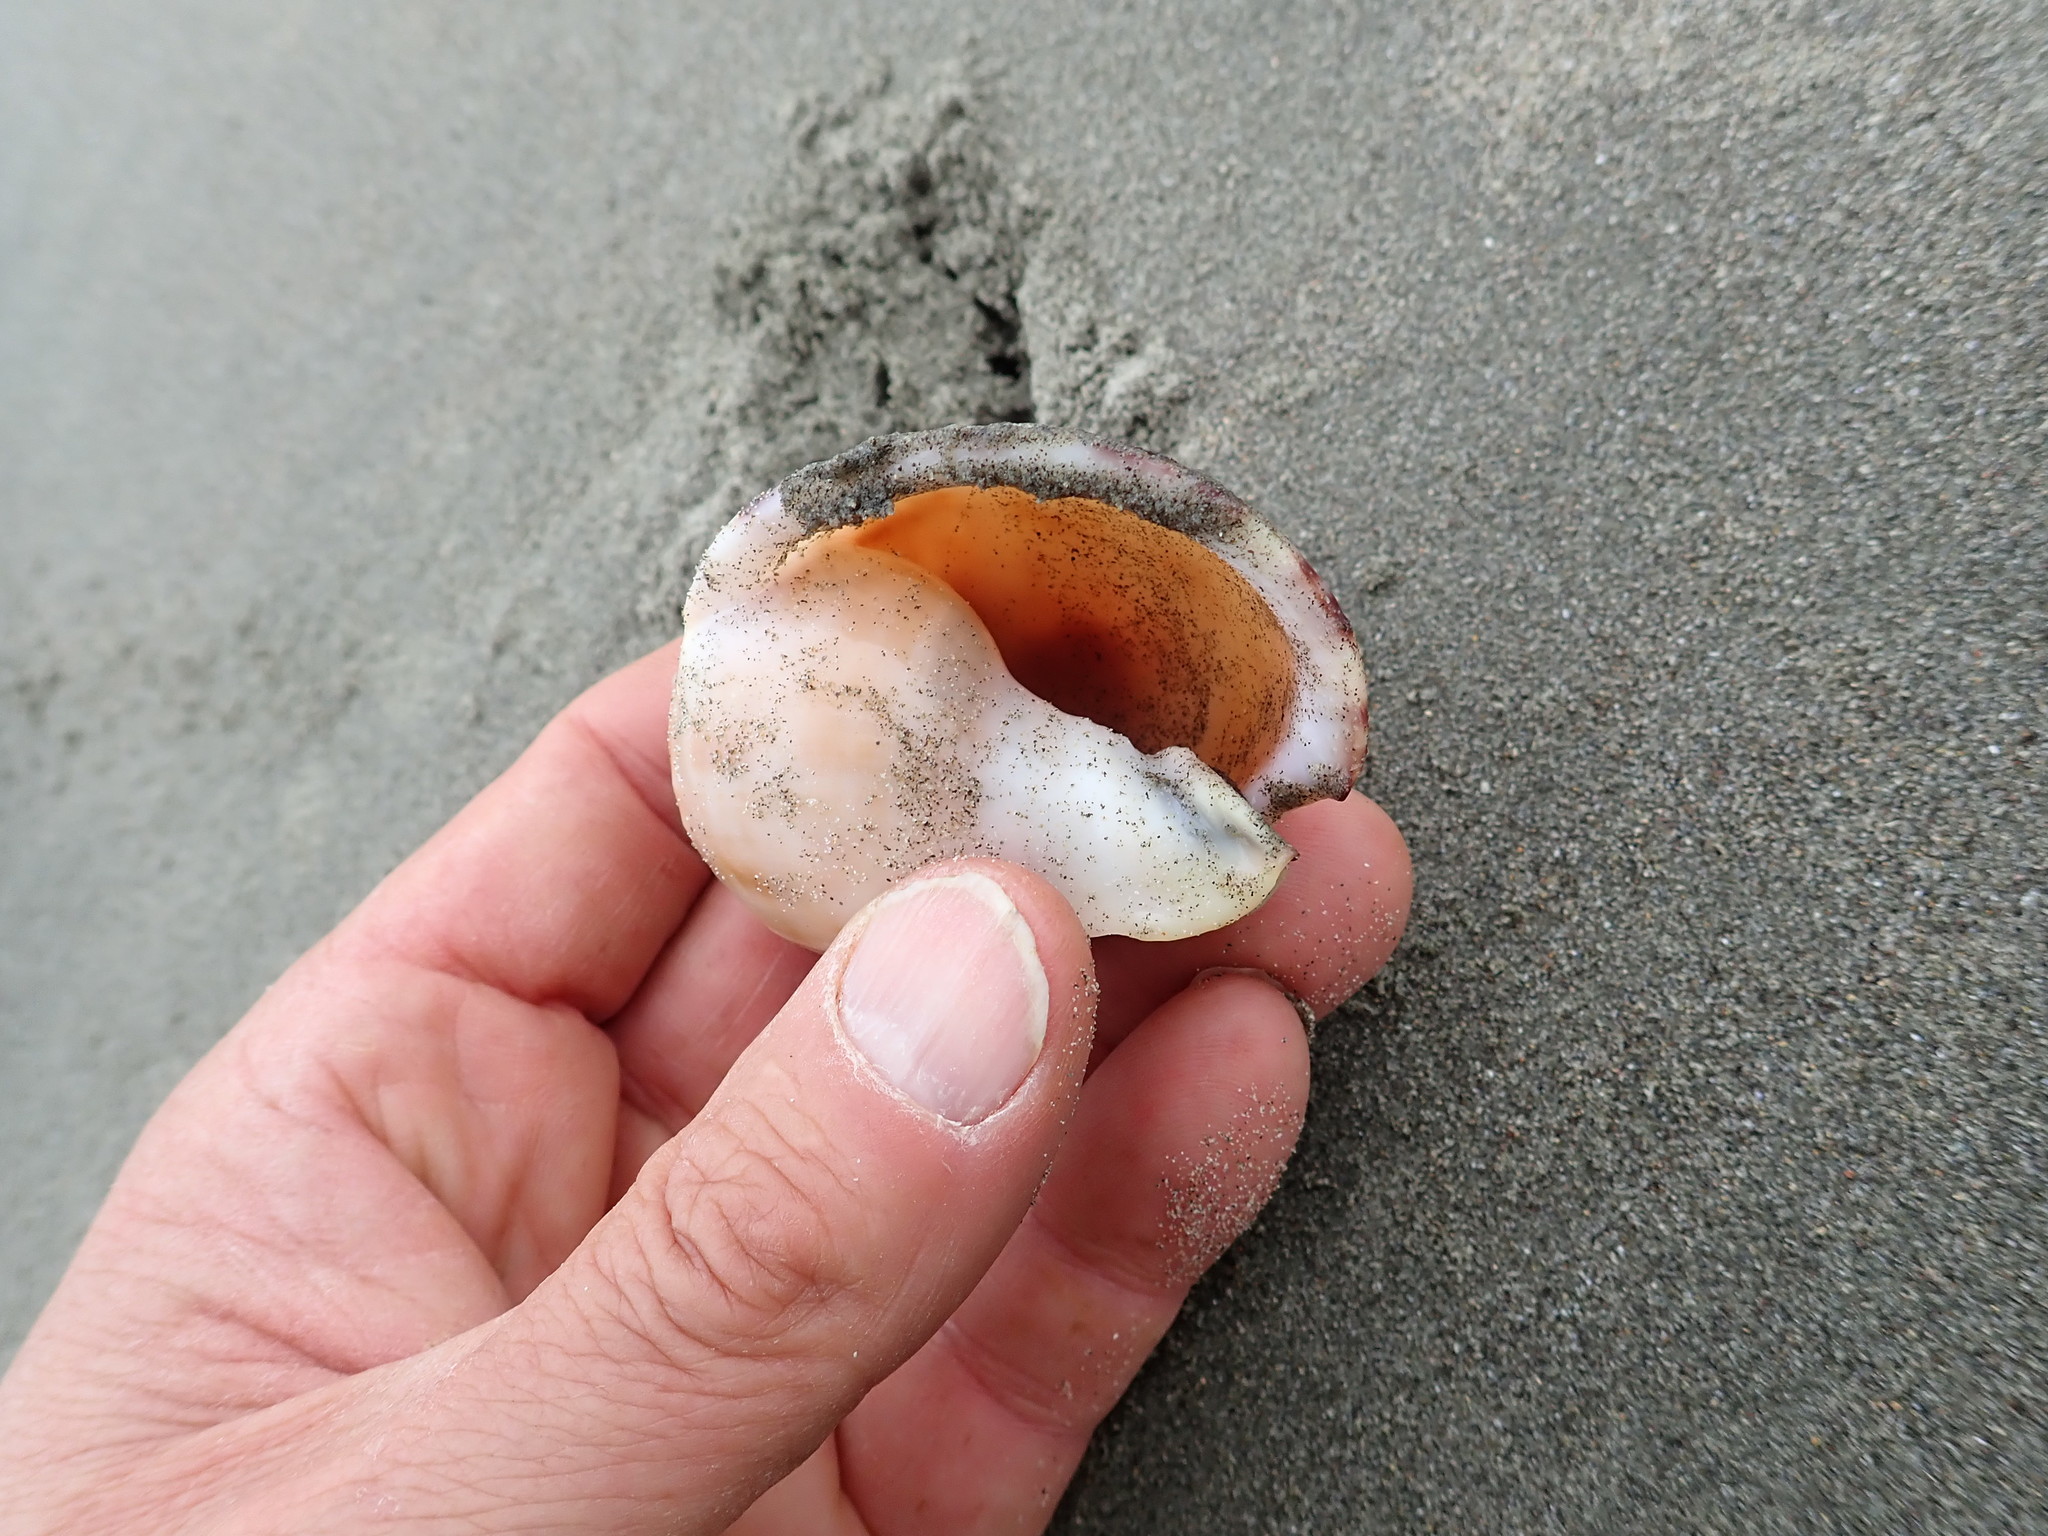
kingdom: Animalia
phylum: Mollusca
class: Gastropoda
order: Littorinimorpha
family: Cassidae
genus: Semicassis
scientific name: Semicassis pyrum
